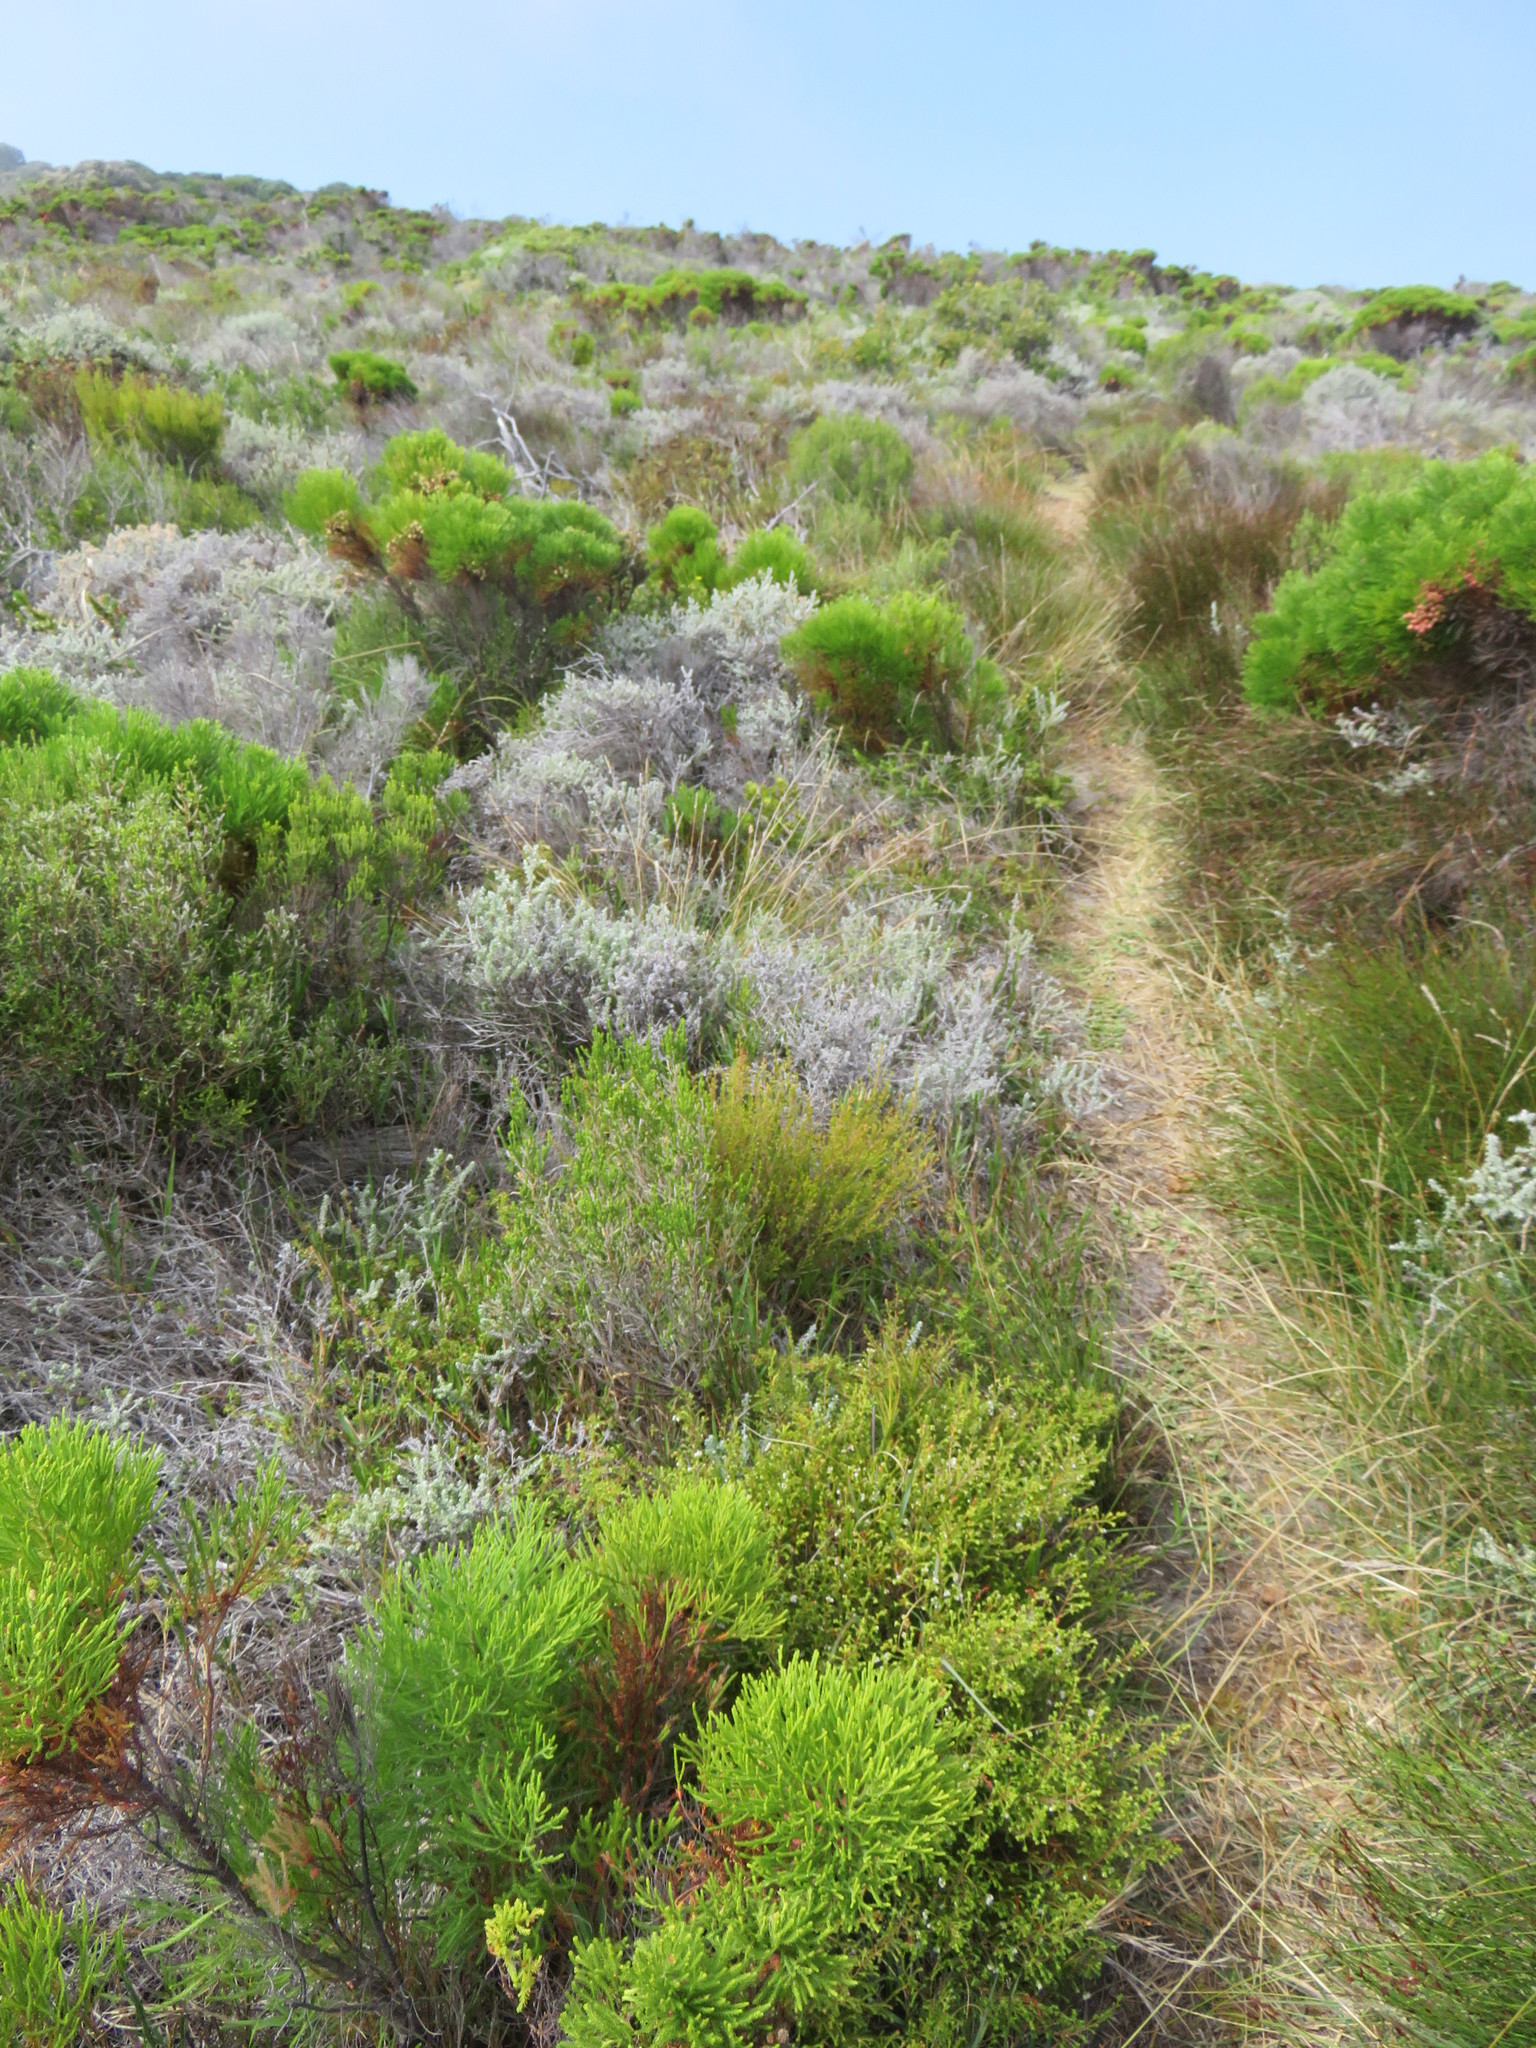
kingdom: Plantae
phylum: Tracheophyta
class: Magnoliopsida
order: Ericales
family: Ericaceae
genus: Erica
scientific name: Erica capensis
